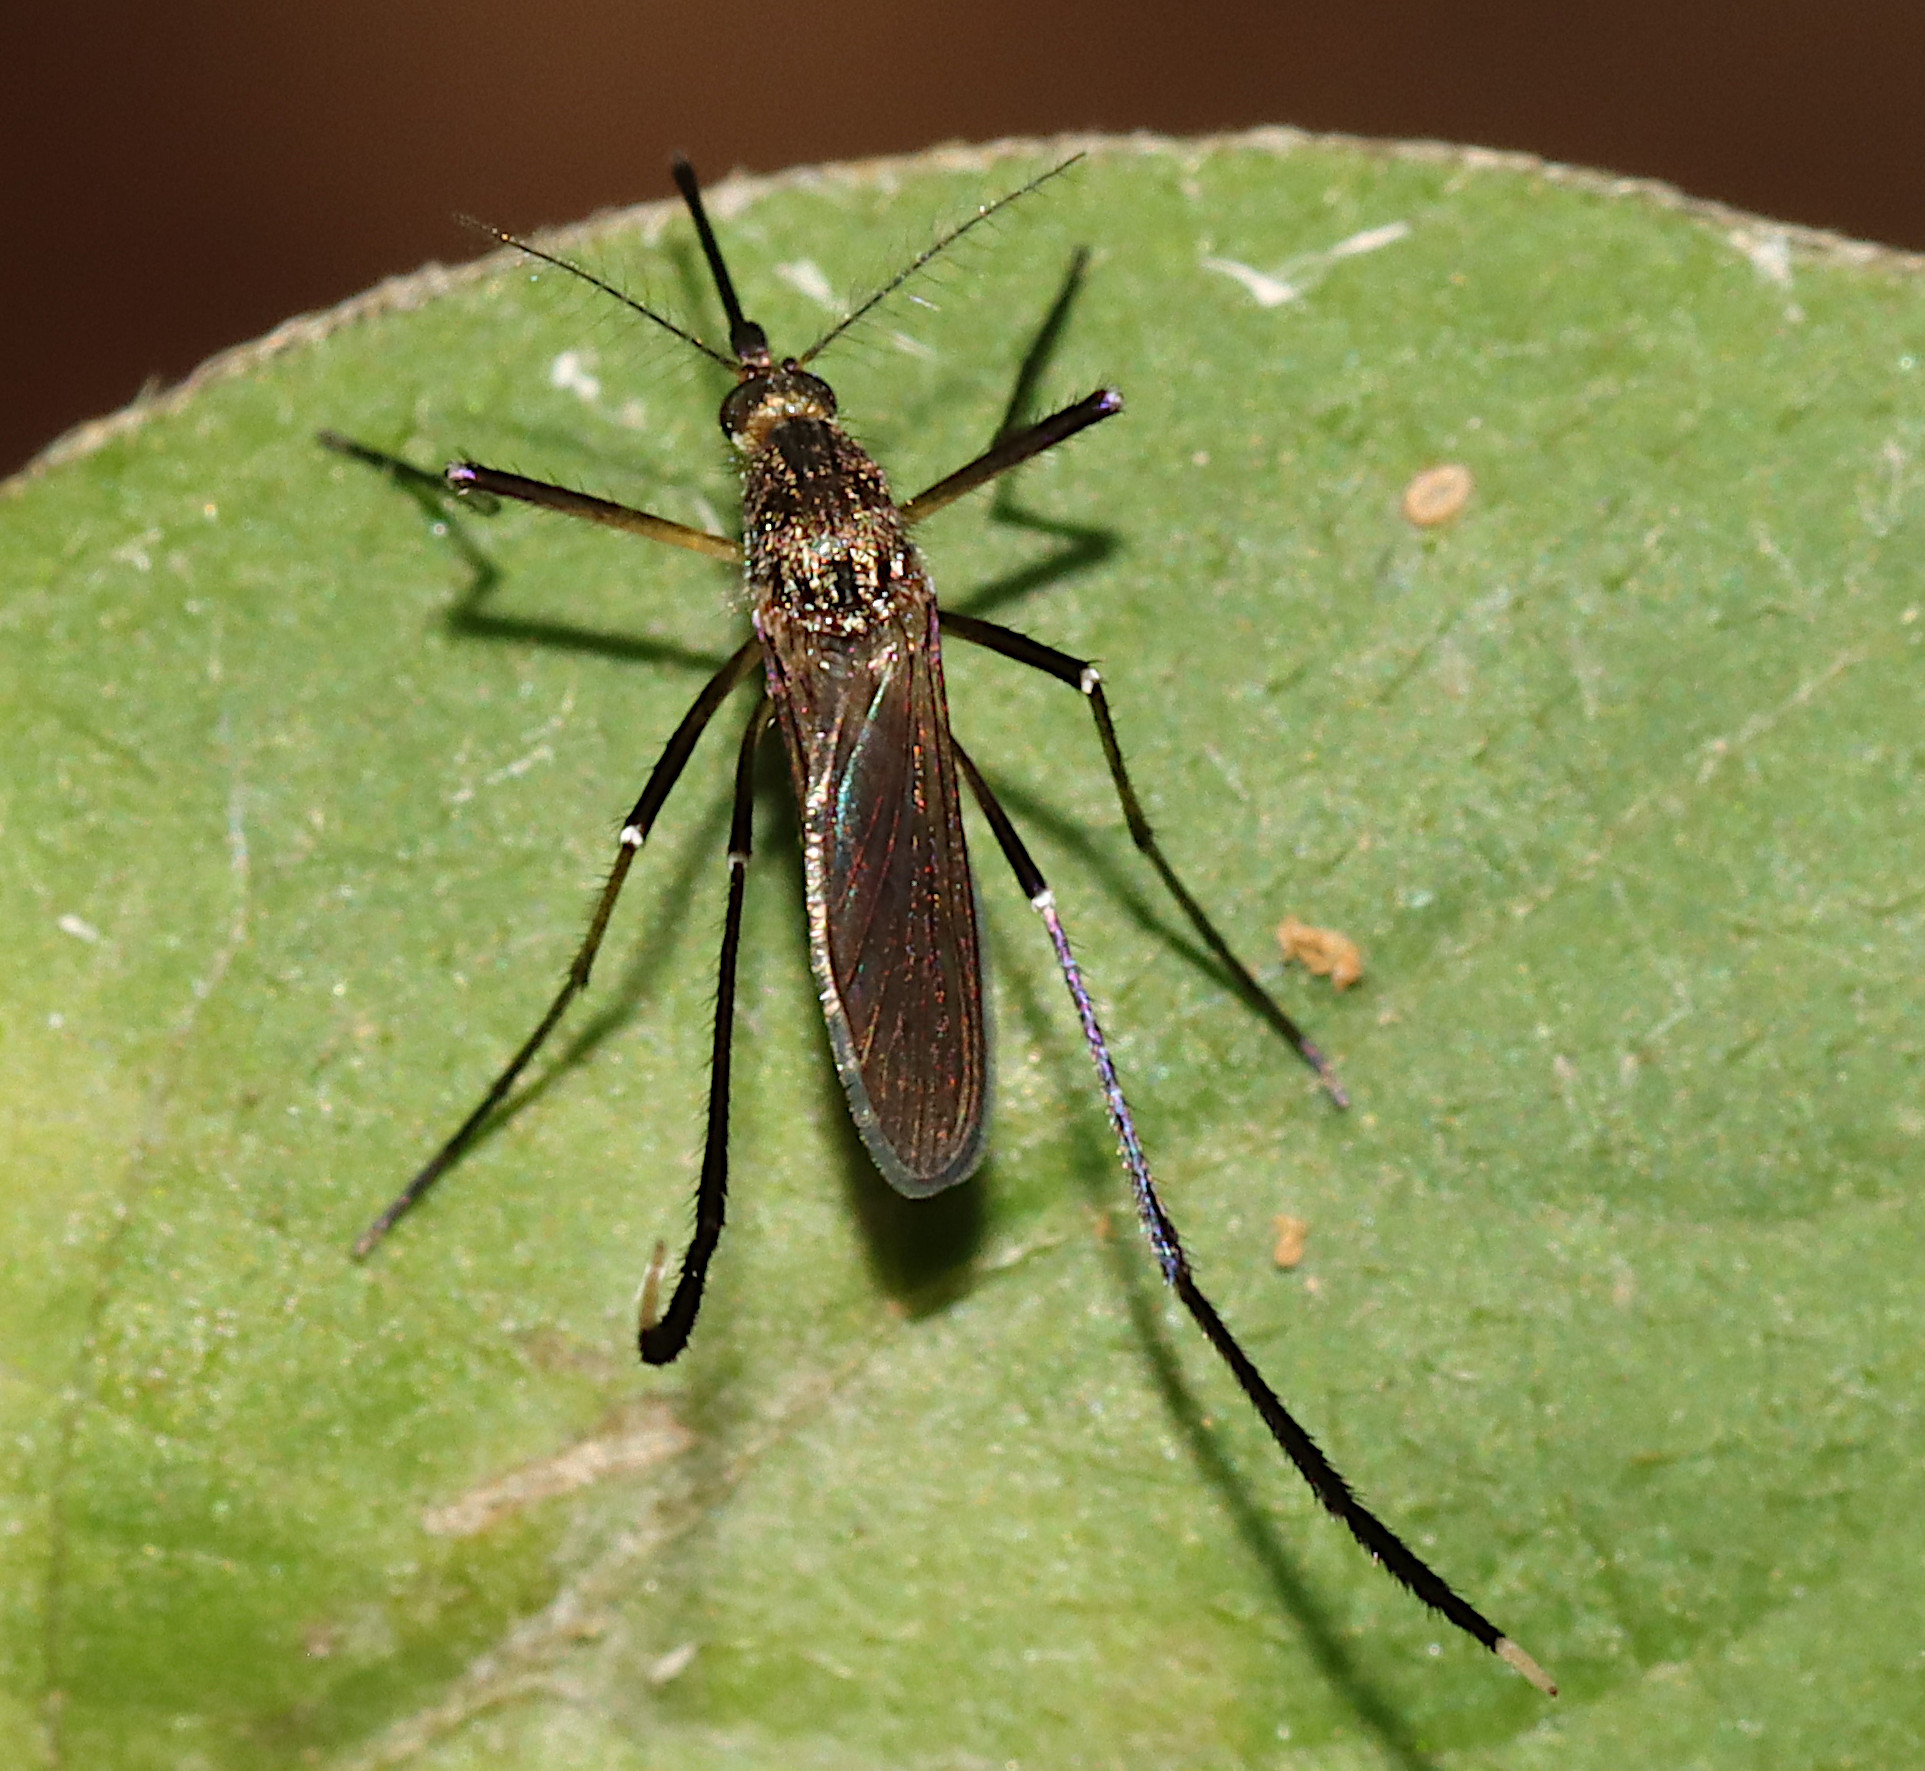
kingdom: Animalia
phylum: Arthropoda
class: Insecta
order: Diptera
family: Culicidae
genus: Psorophora
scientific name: Psorophora ferox
